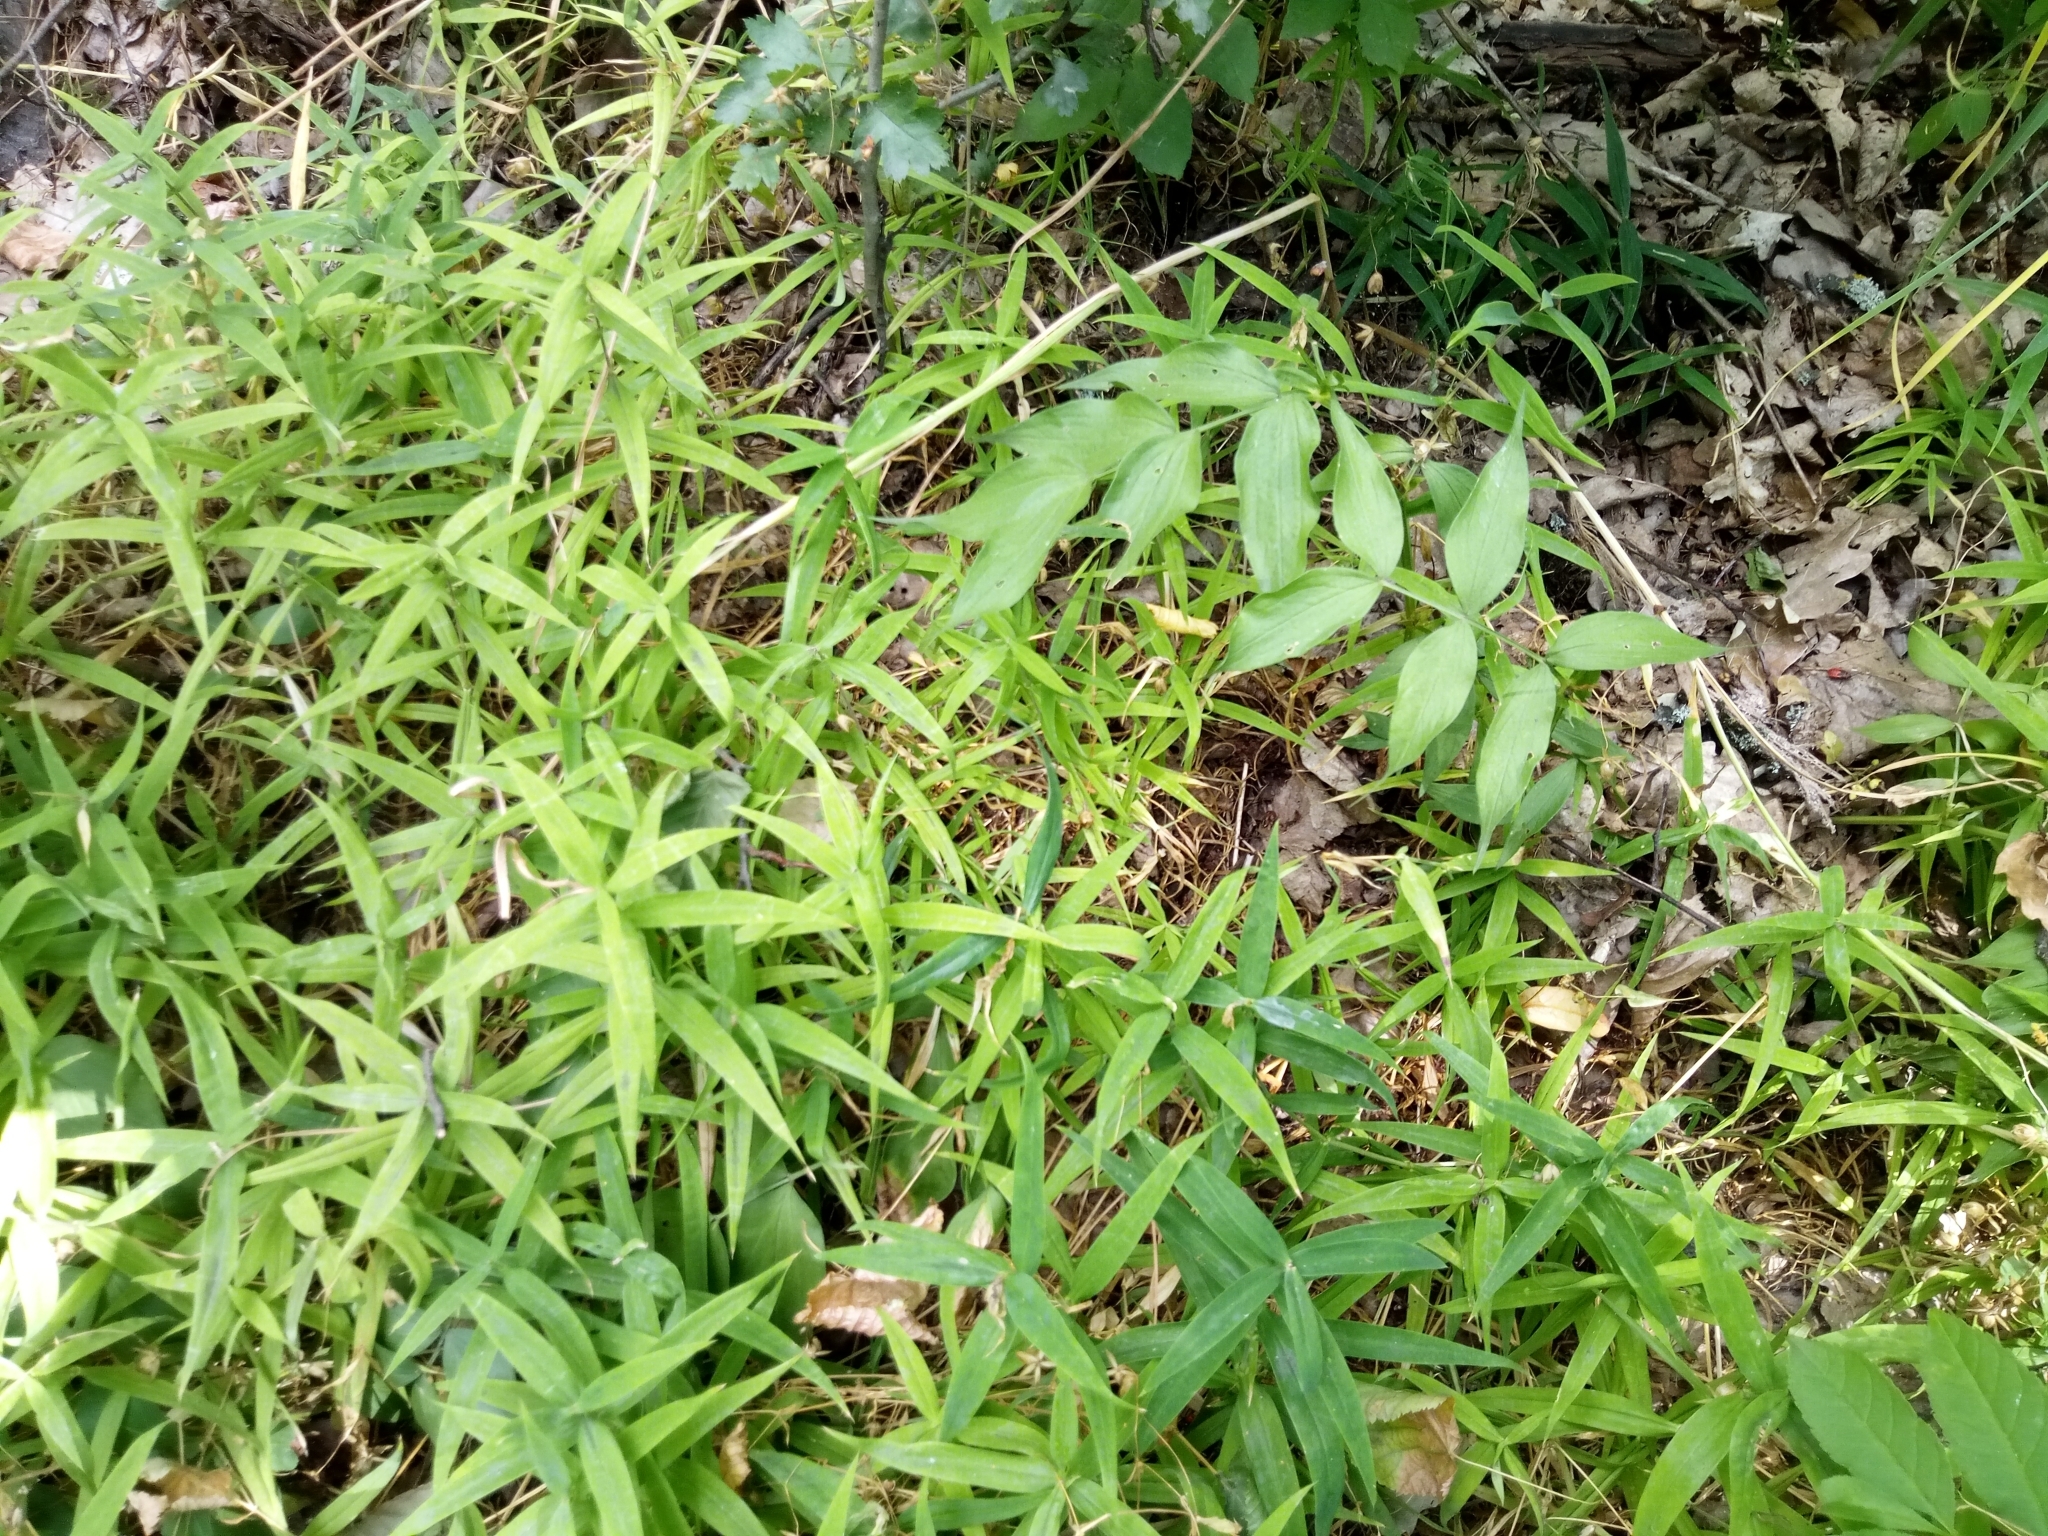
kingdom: Plantae
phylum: Tracheophyta
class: Magnoliopsida
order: Caryophyllales
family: Caryophyllaceae
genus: Rabelera
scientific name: Rabelera holostea
